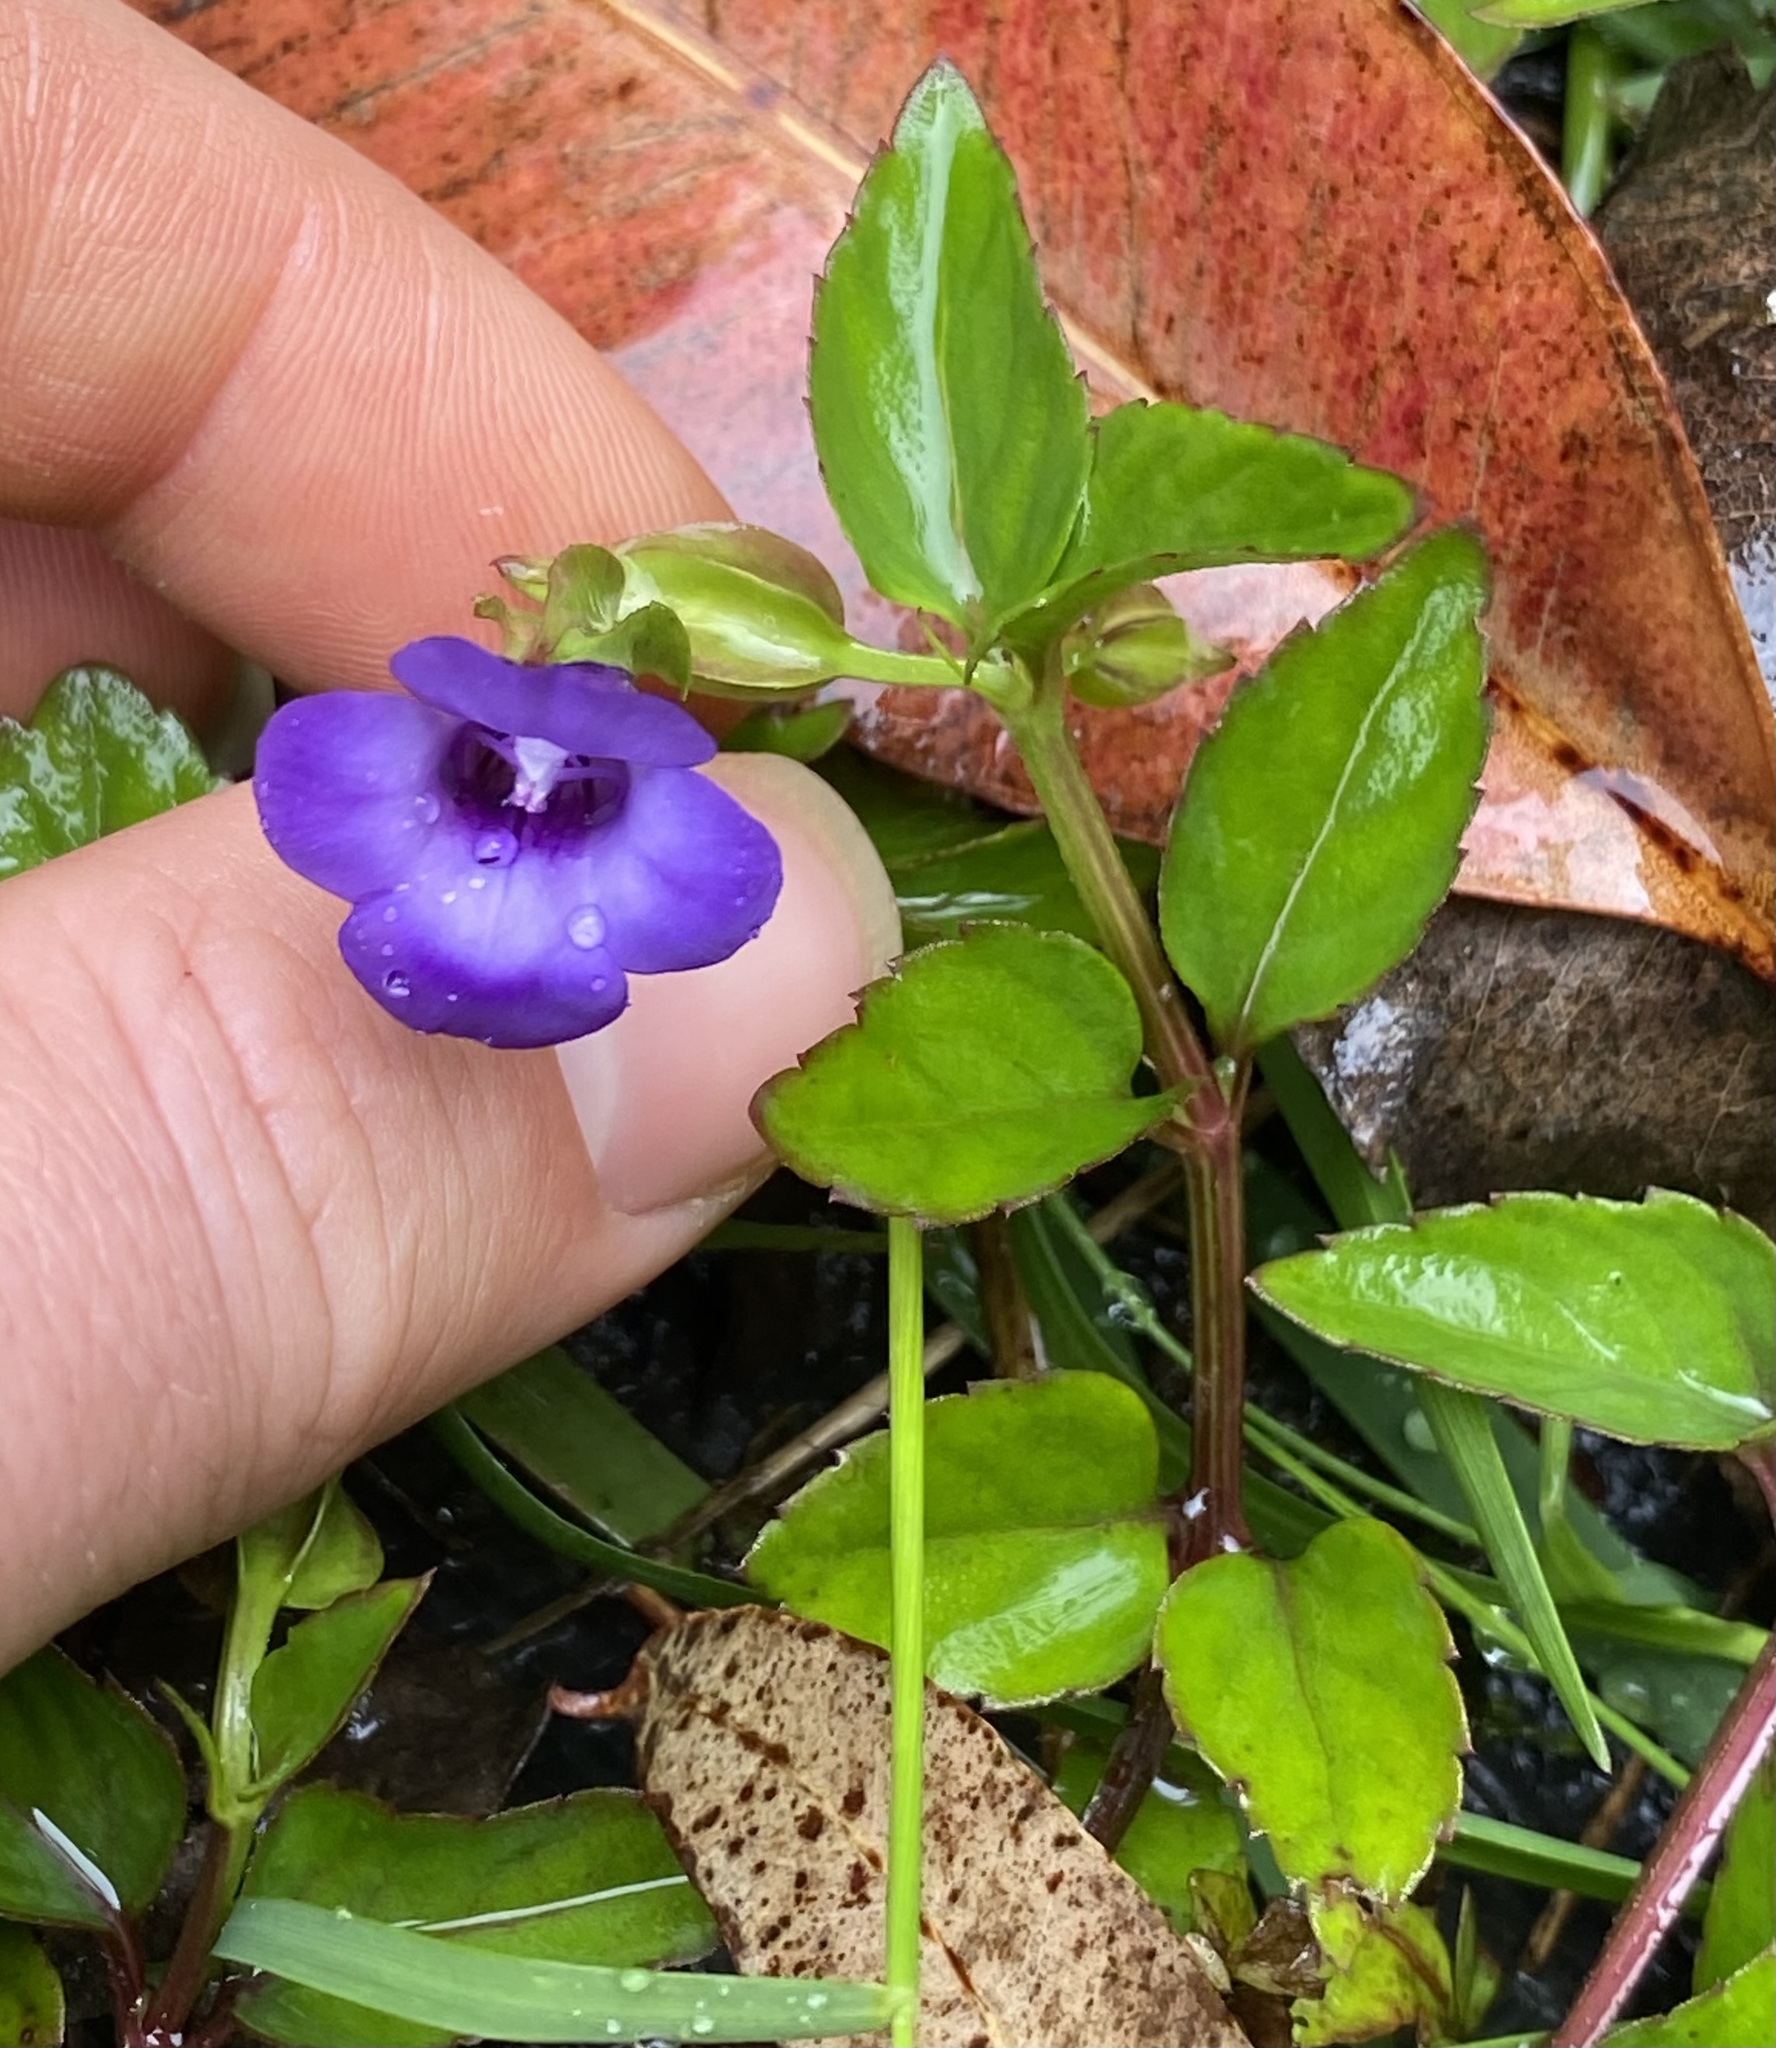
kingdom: Plantae
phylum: Tracheophyta
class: Magnoliopsida
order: Lamiales
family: Linderniaceae
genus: Torenia
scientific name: Torenia asiatica
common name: Wishbone flower
